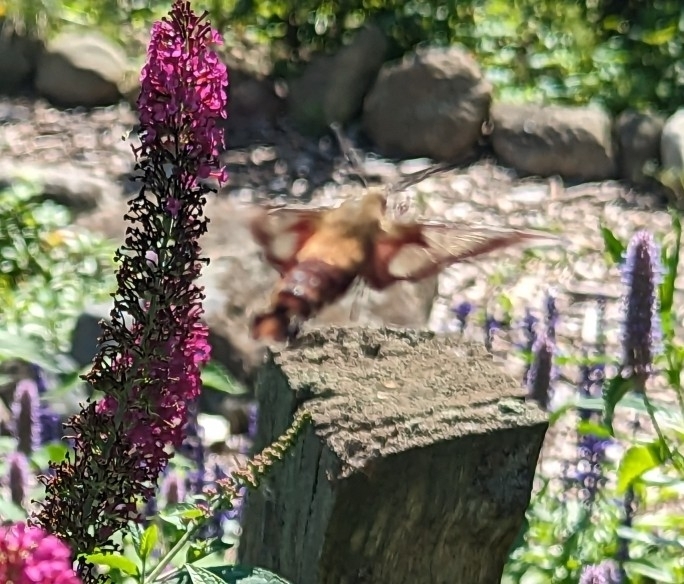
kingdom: Animalia
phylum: Arthropoda
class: Insecta
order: Lepidoptera
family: Sphingidae
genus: Hemaris
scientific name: Hemaris thysbe
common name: Common clear-wing
